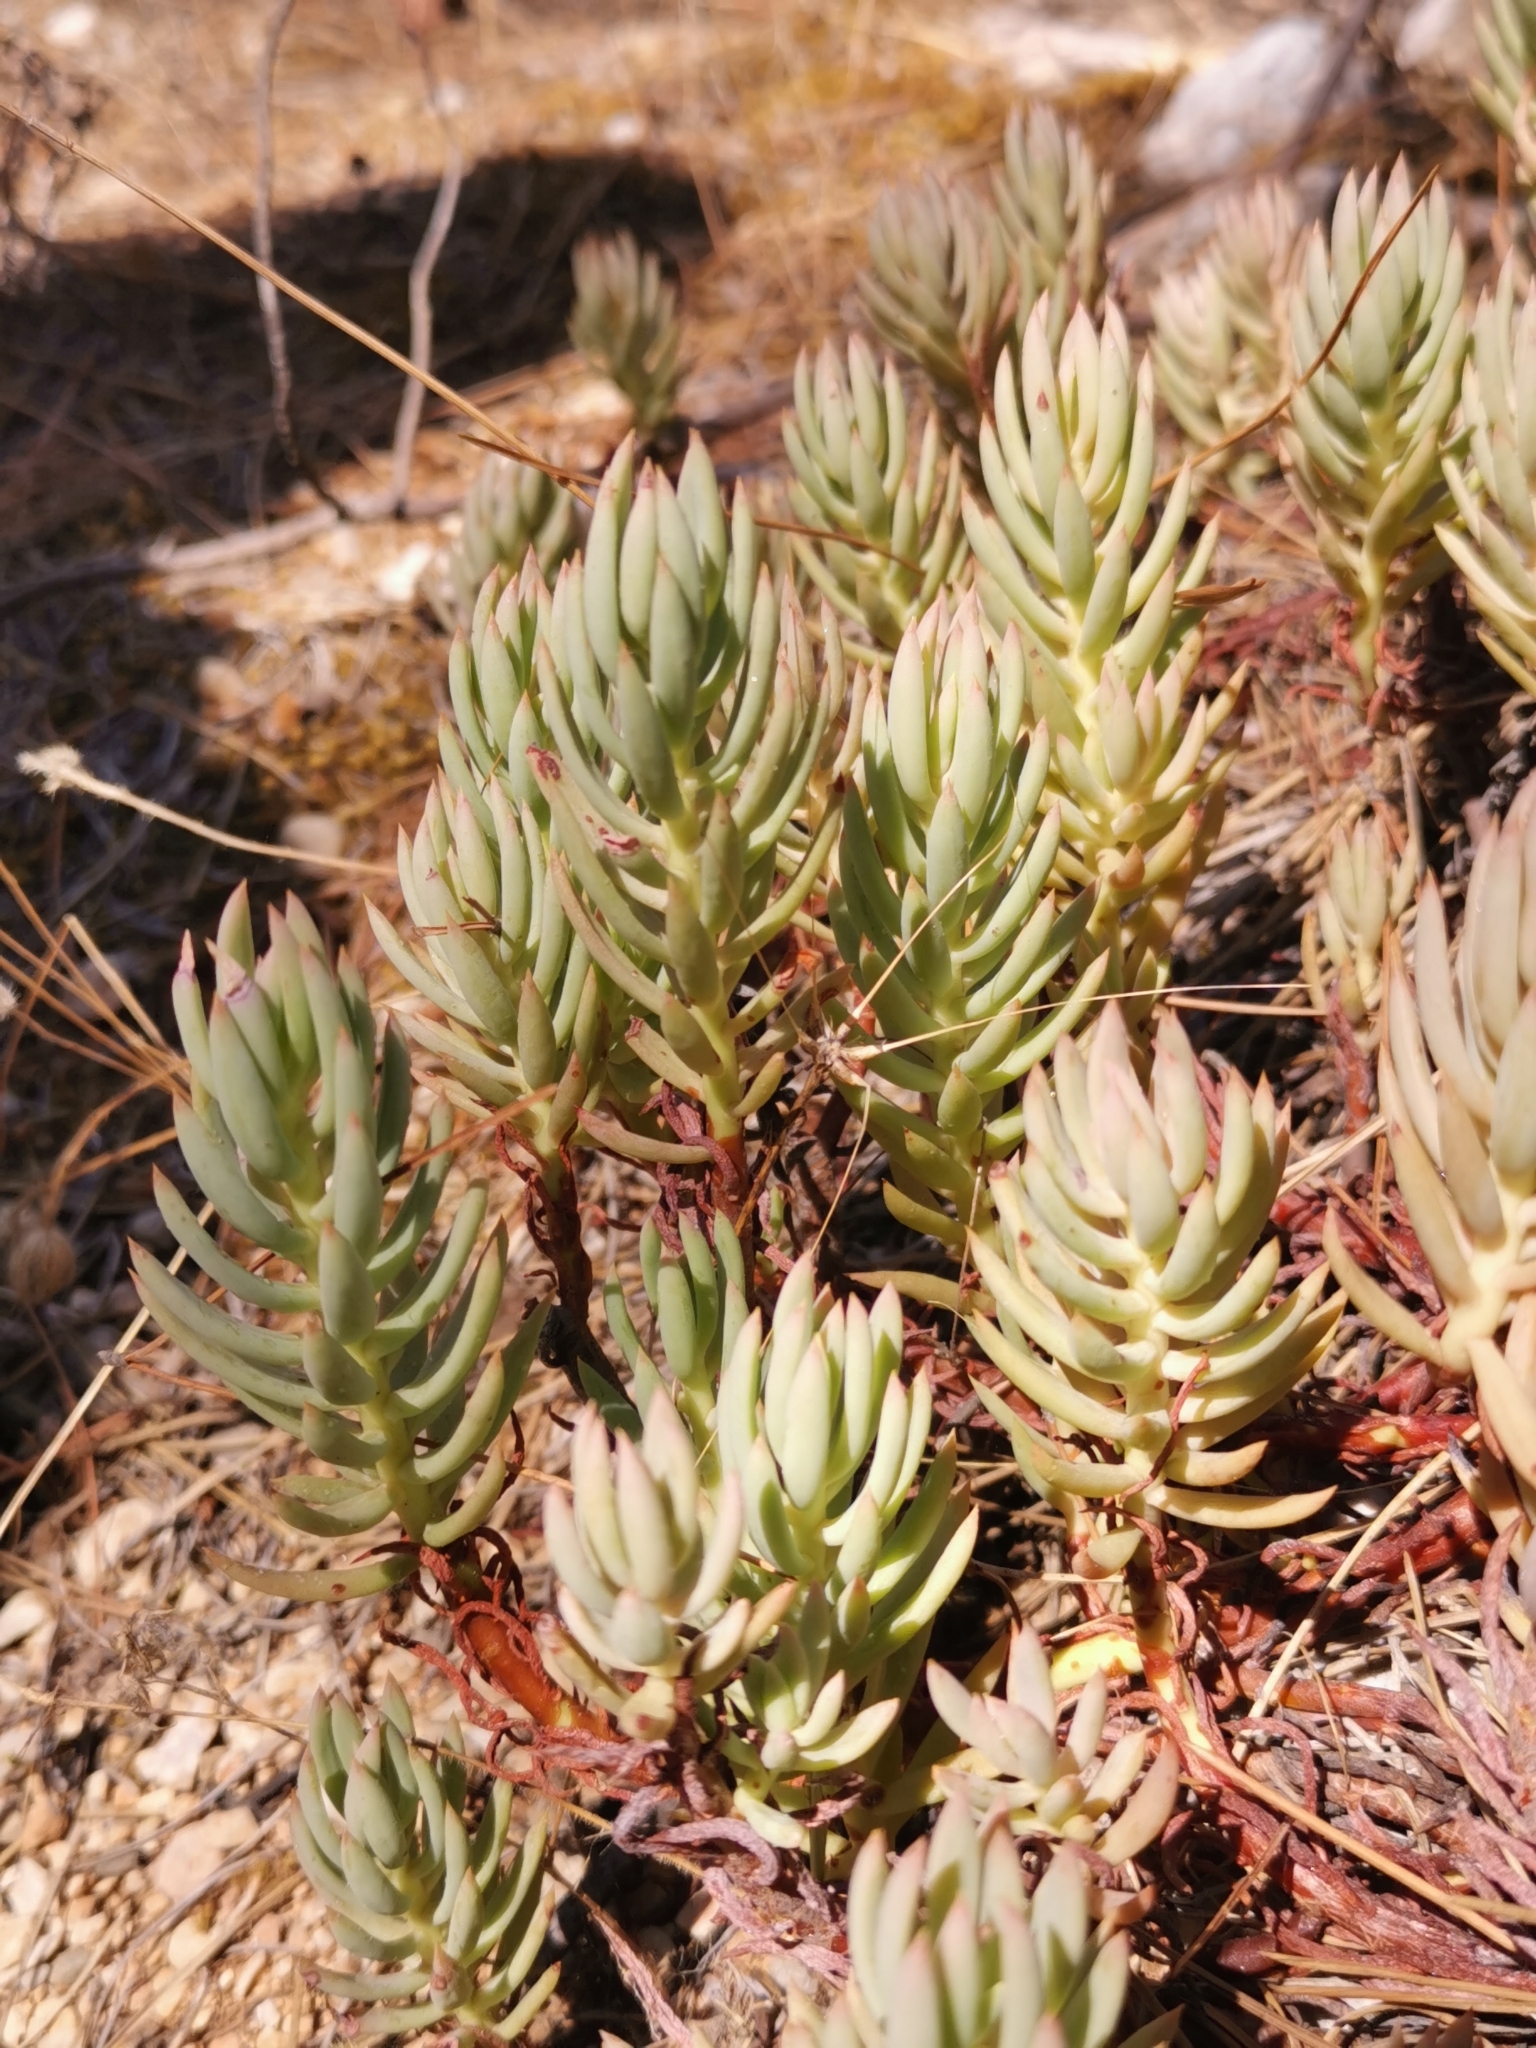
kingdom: Plantae
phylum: Tracheophyta
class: Magnoliopsida
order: Saxifragales
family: Crassulaceae
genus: Petrosedum
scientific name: Petrosedum sediforme
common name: Pale stonecrop
